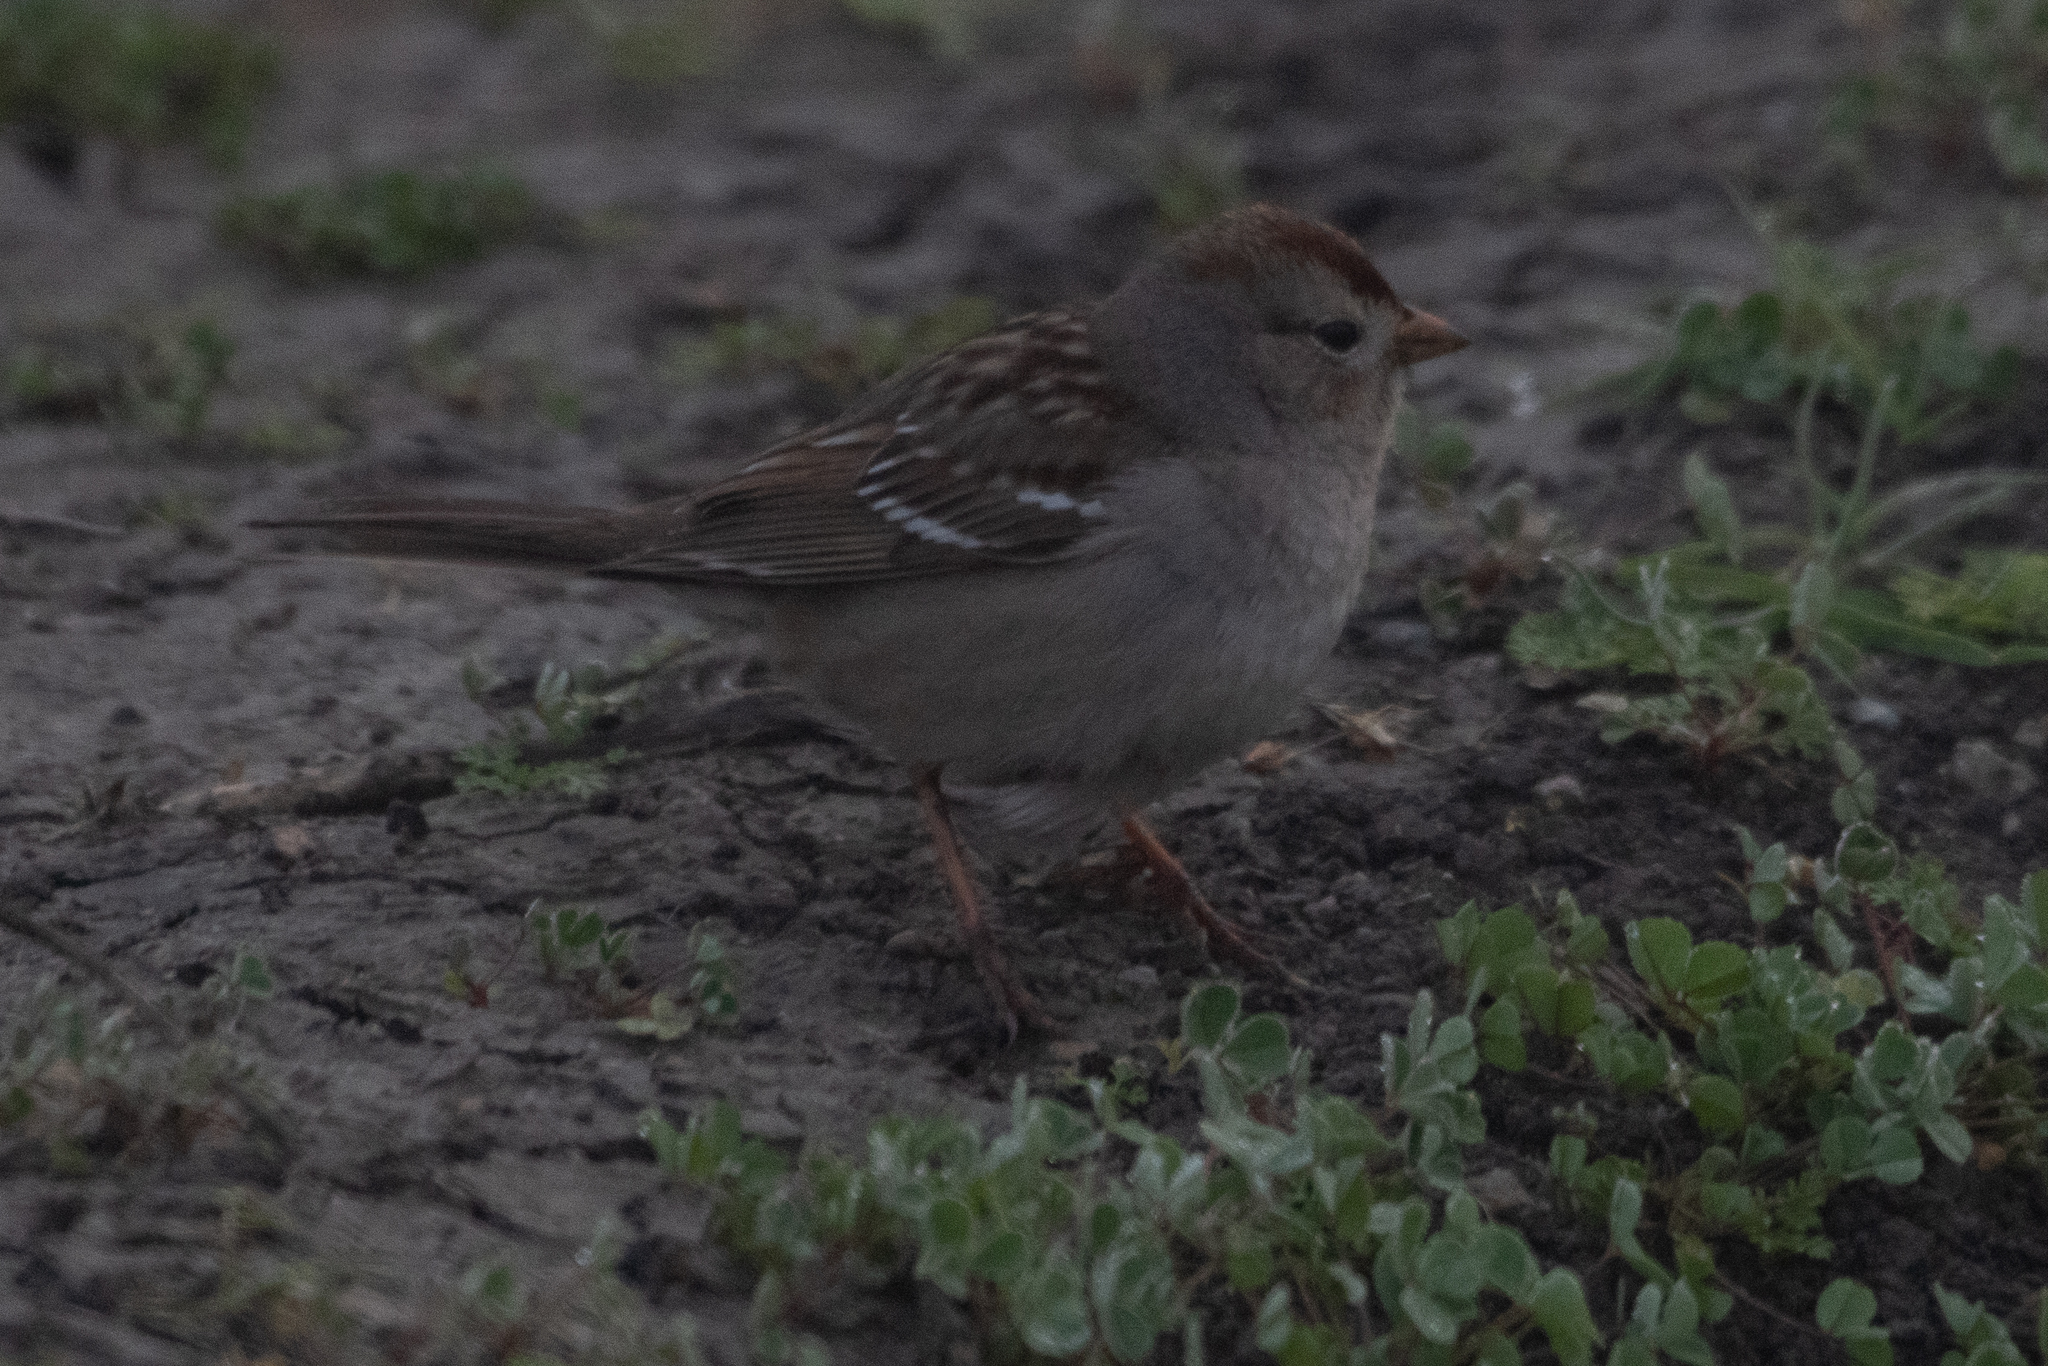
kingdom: Animalia
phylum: Chordata
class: Aves
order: Passeriformes
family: Passerellidae
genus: Zonotrichia
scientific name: Zonotrichia leucophrys
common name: White-crowned sparrow
